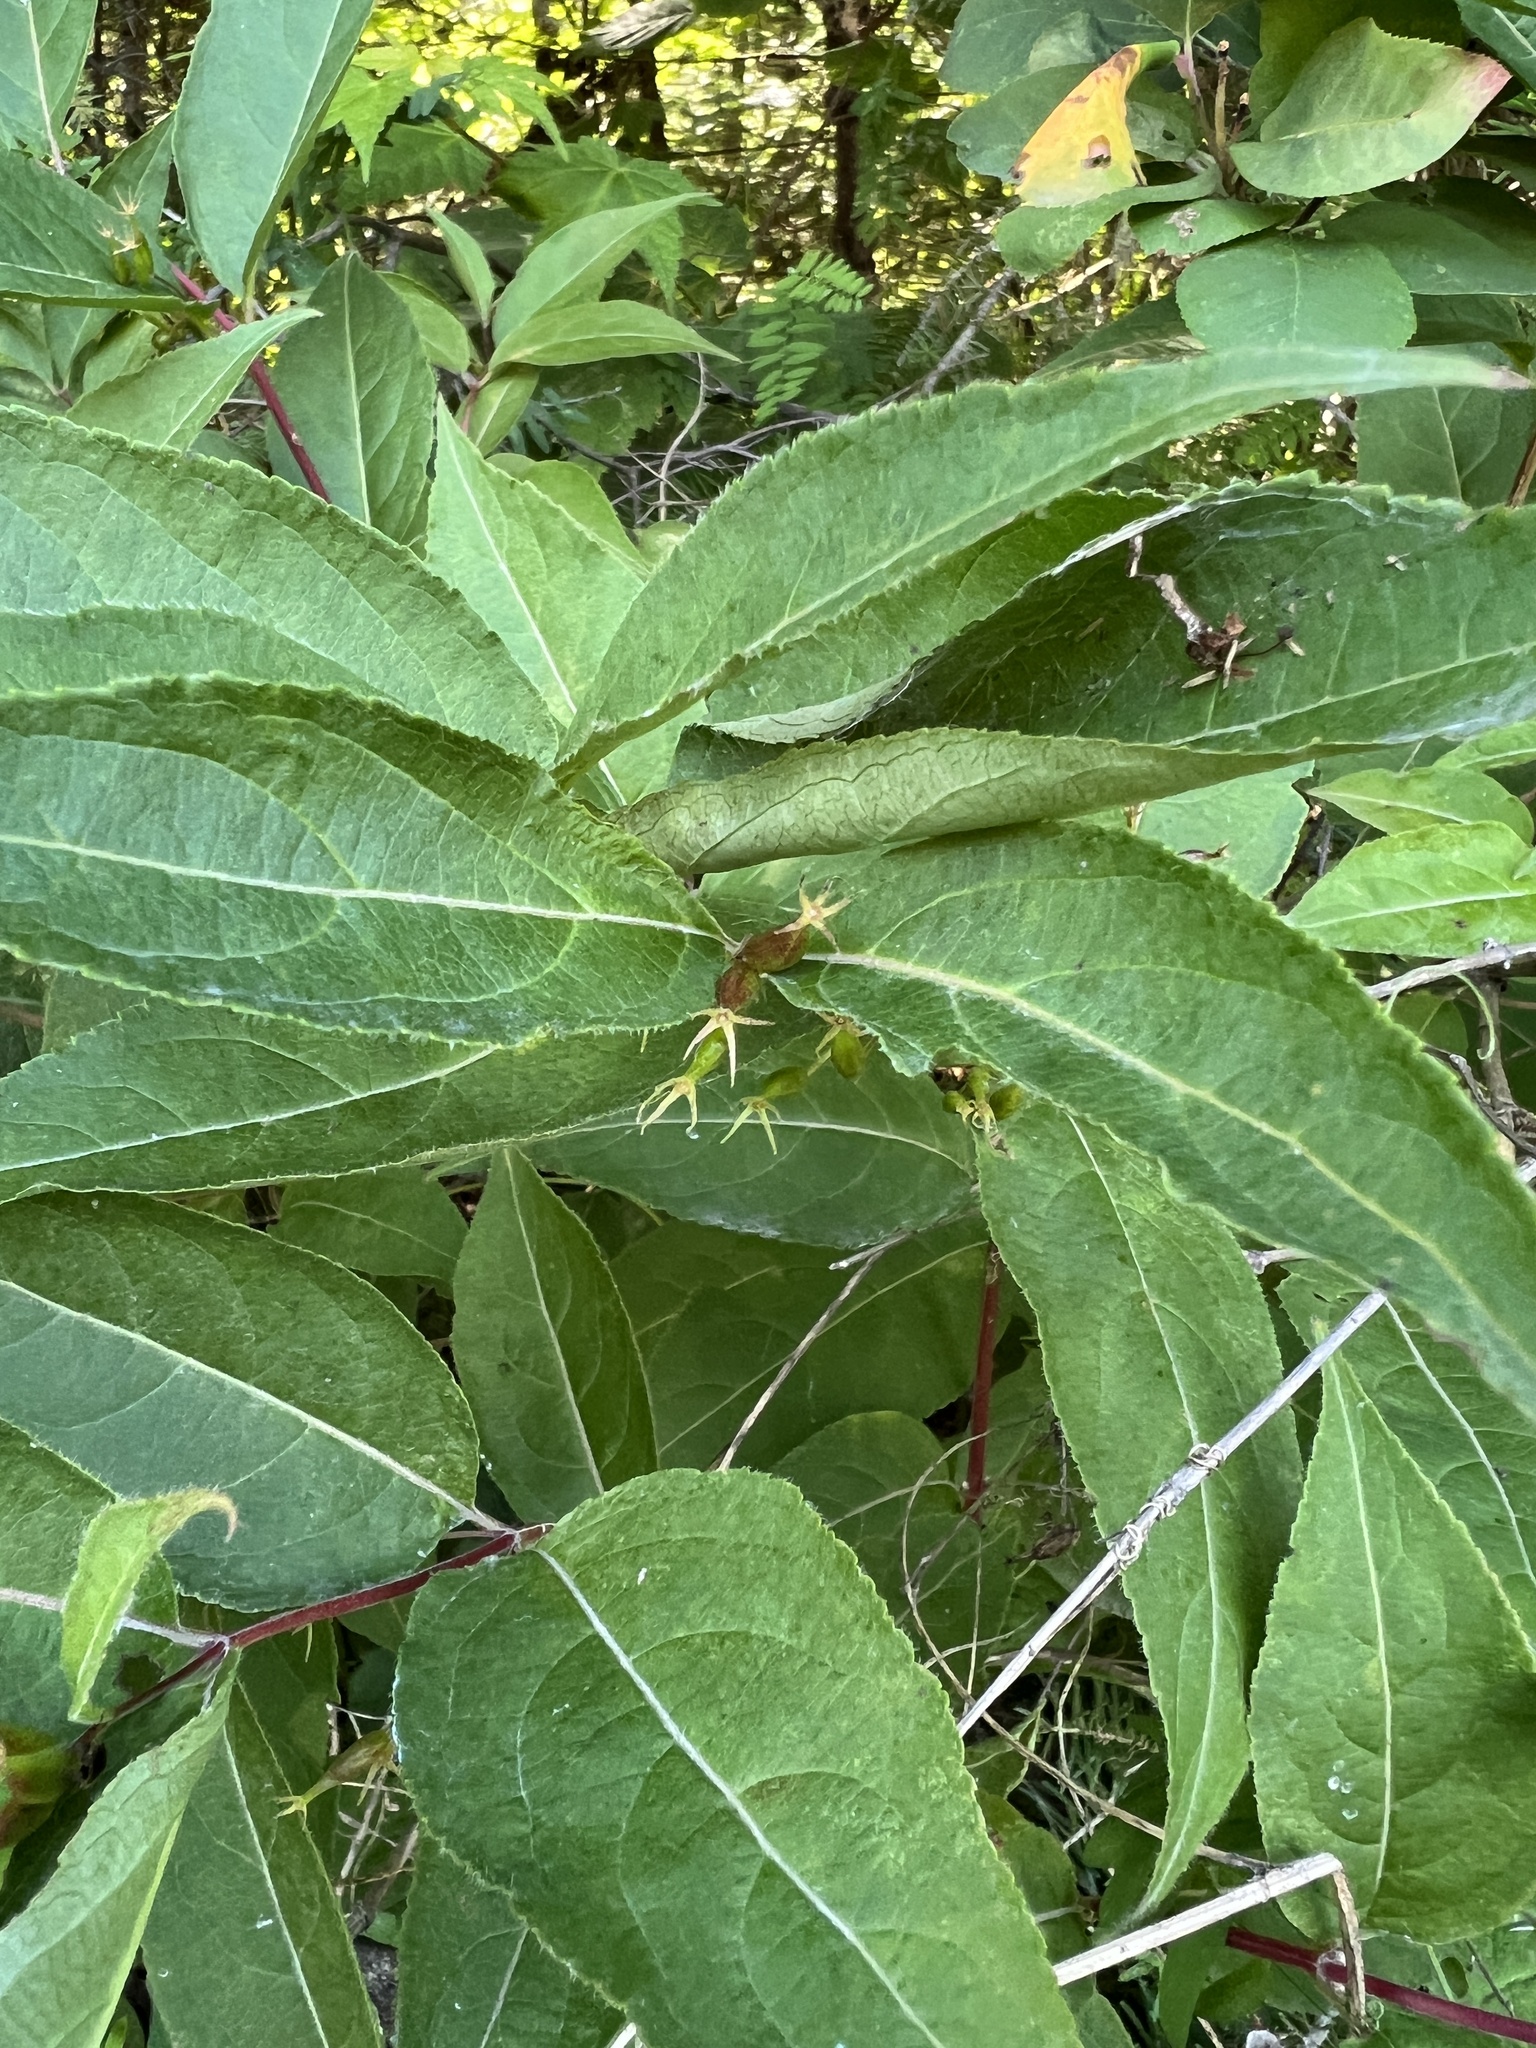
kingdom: Plantae
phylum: Tracheophyta
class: Magnoliopsida
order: Dipsacales
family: Caprifoliaceae
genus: Diervilla
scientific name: Diervilla lonicera
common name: Bush-honeysuckle
